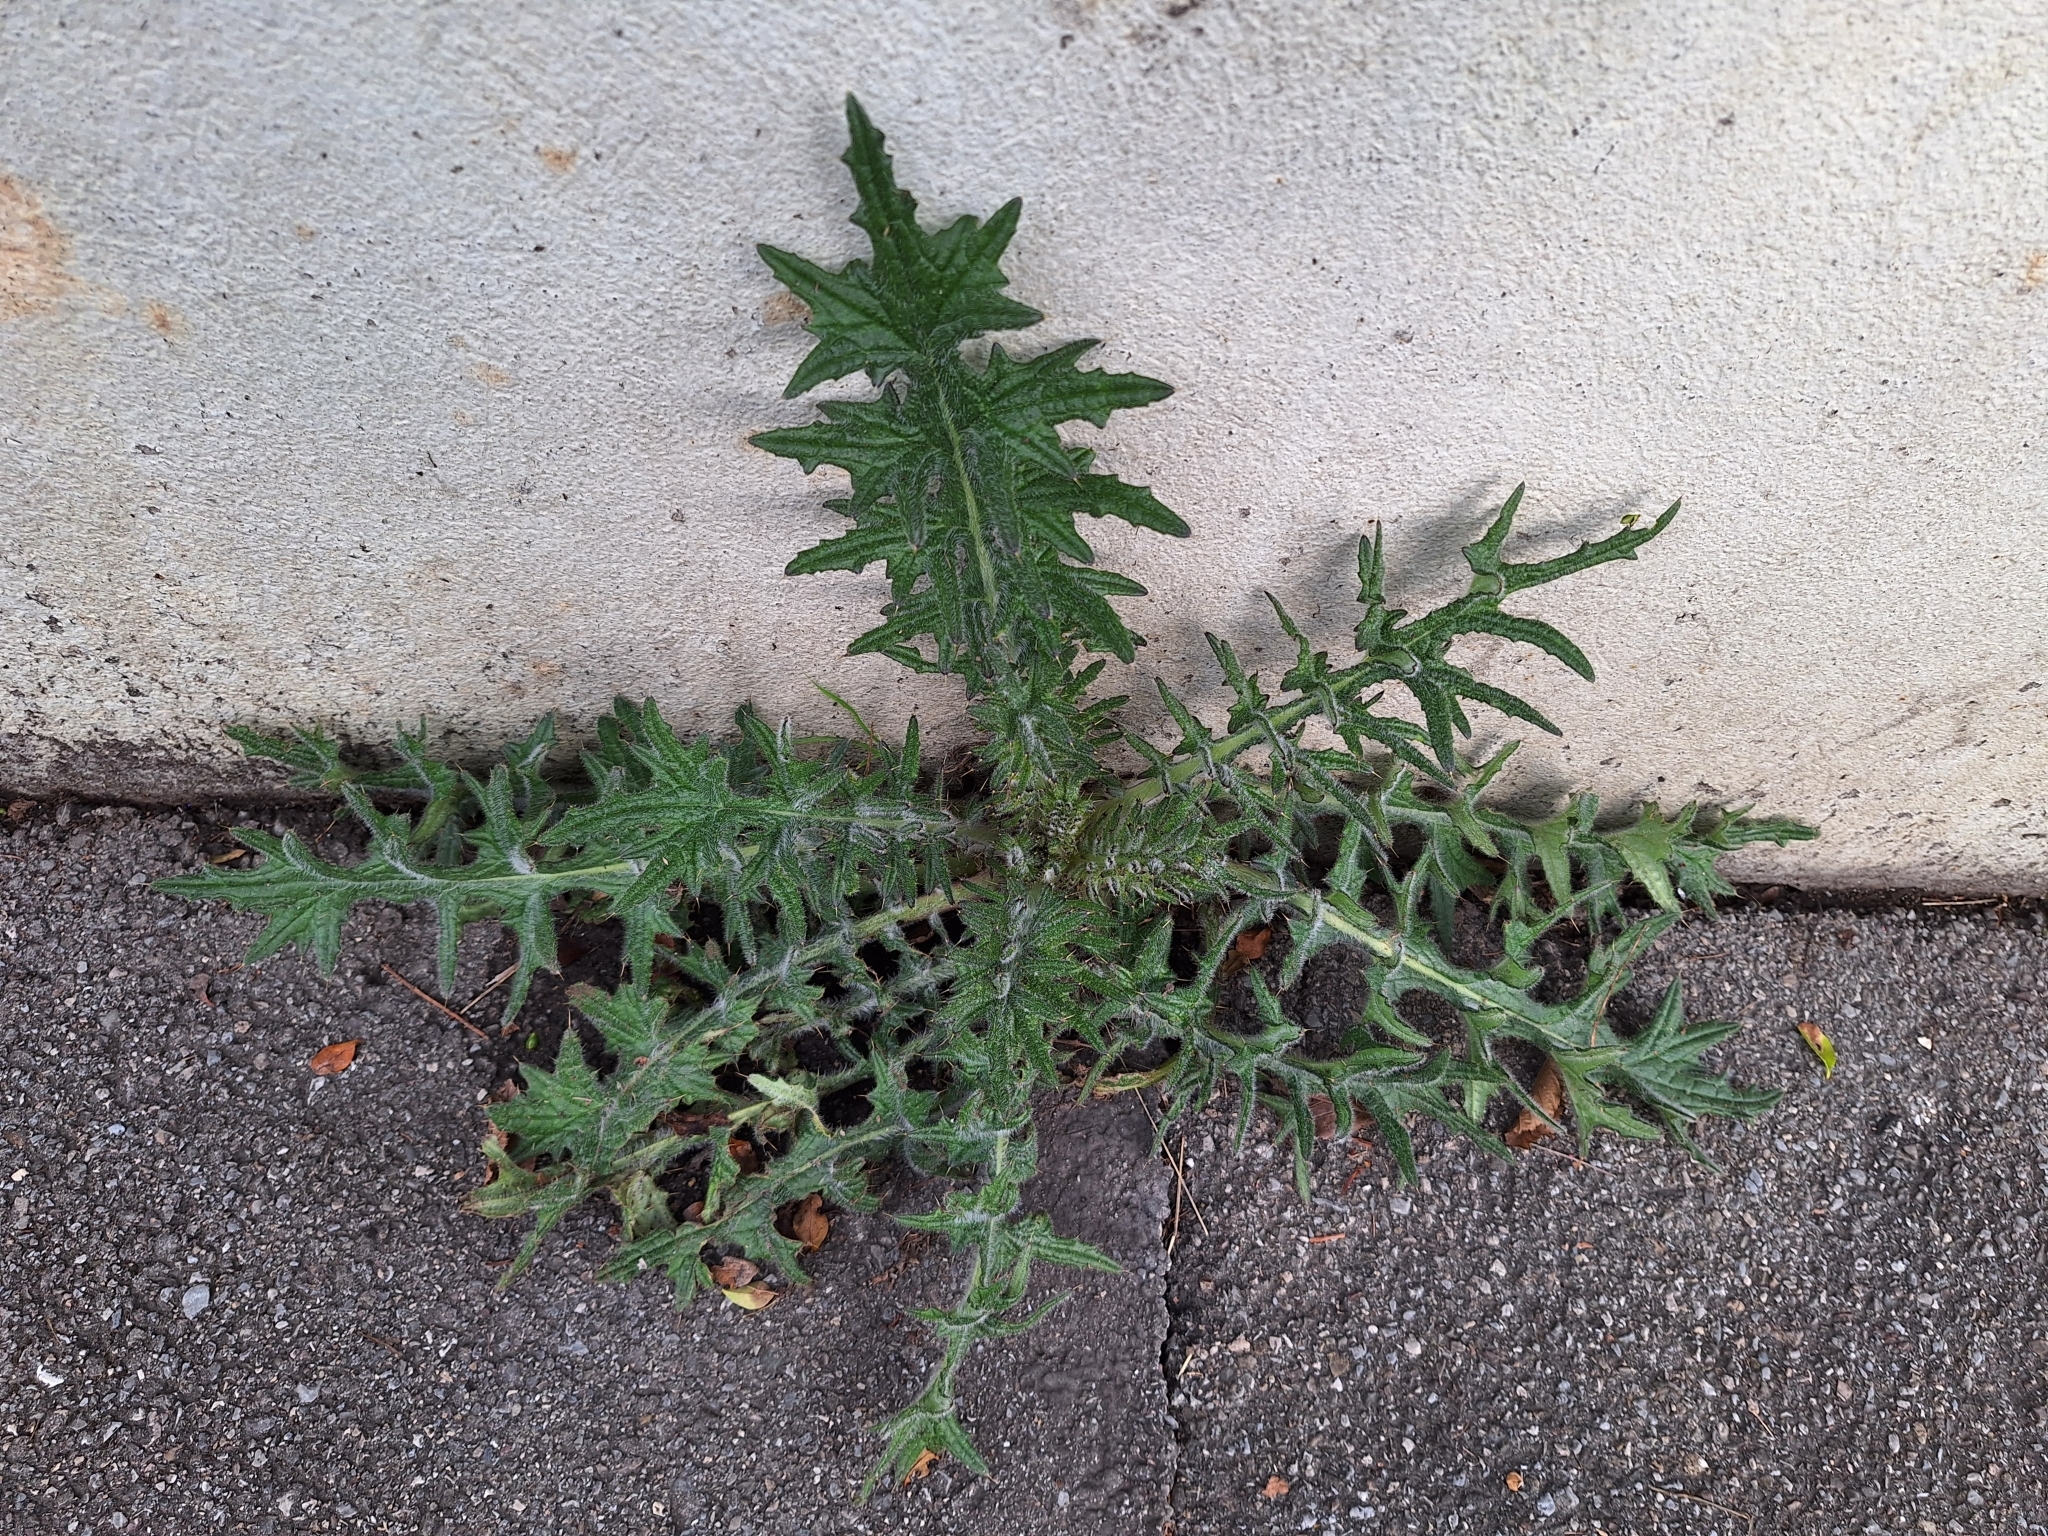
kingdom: Plantae
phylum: Tracheophyta
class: Magnoliopsida
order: Asterales
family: Asteraceae
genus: Cirsium
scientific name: Cirsium vulgare
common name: Bull thistle
